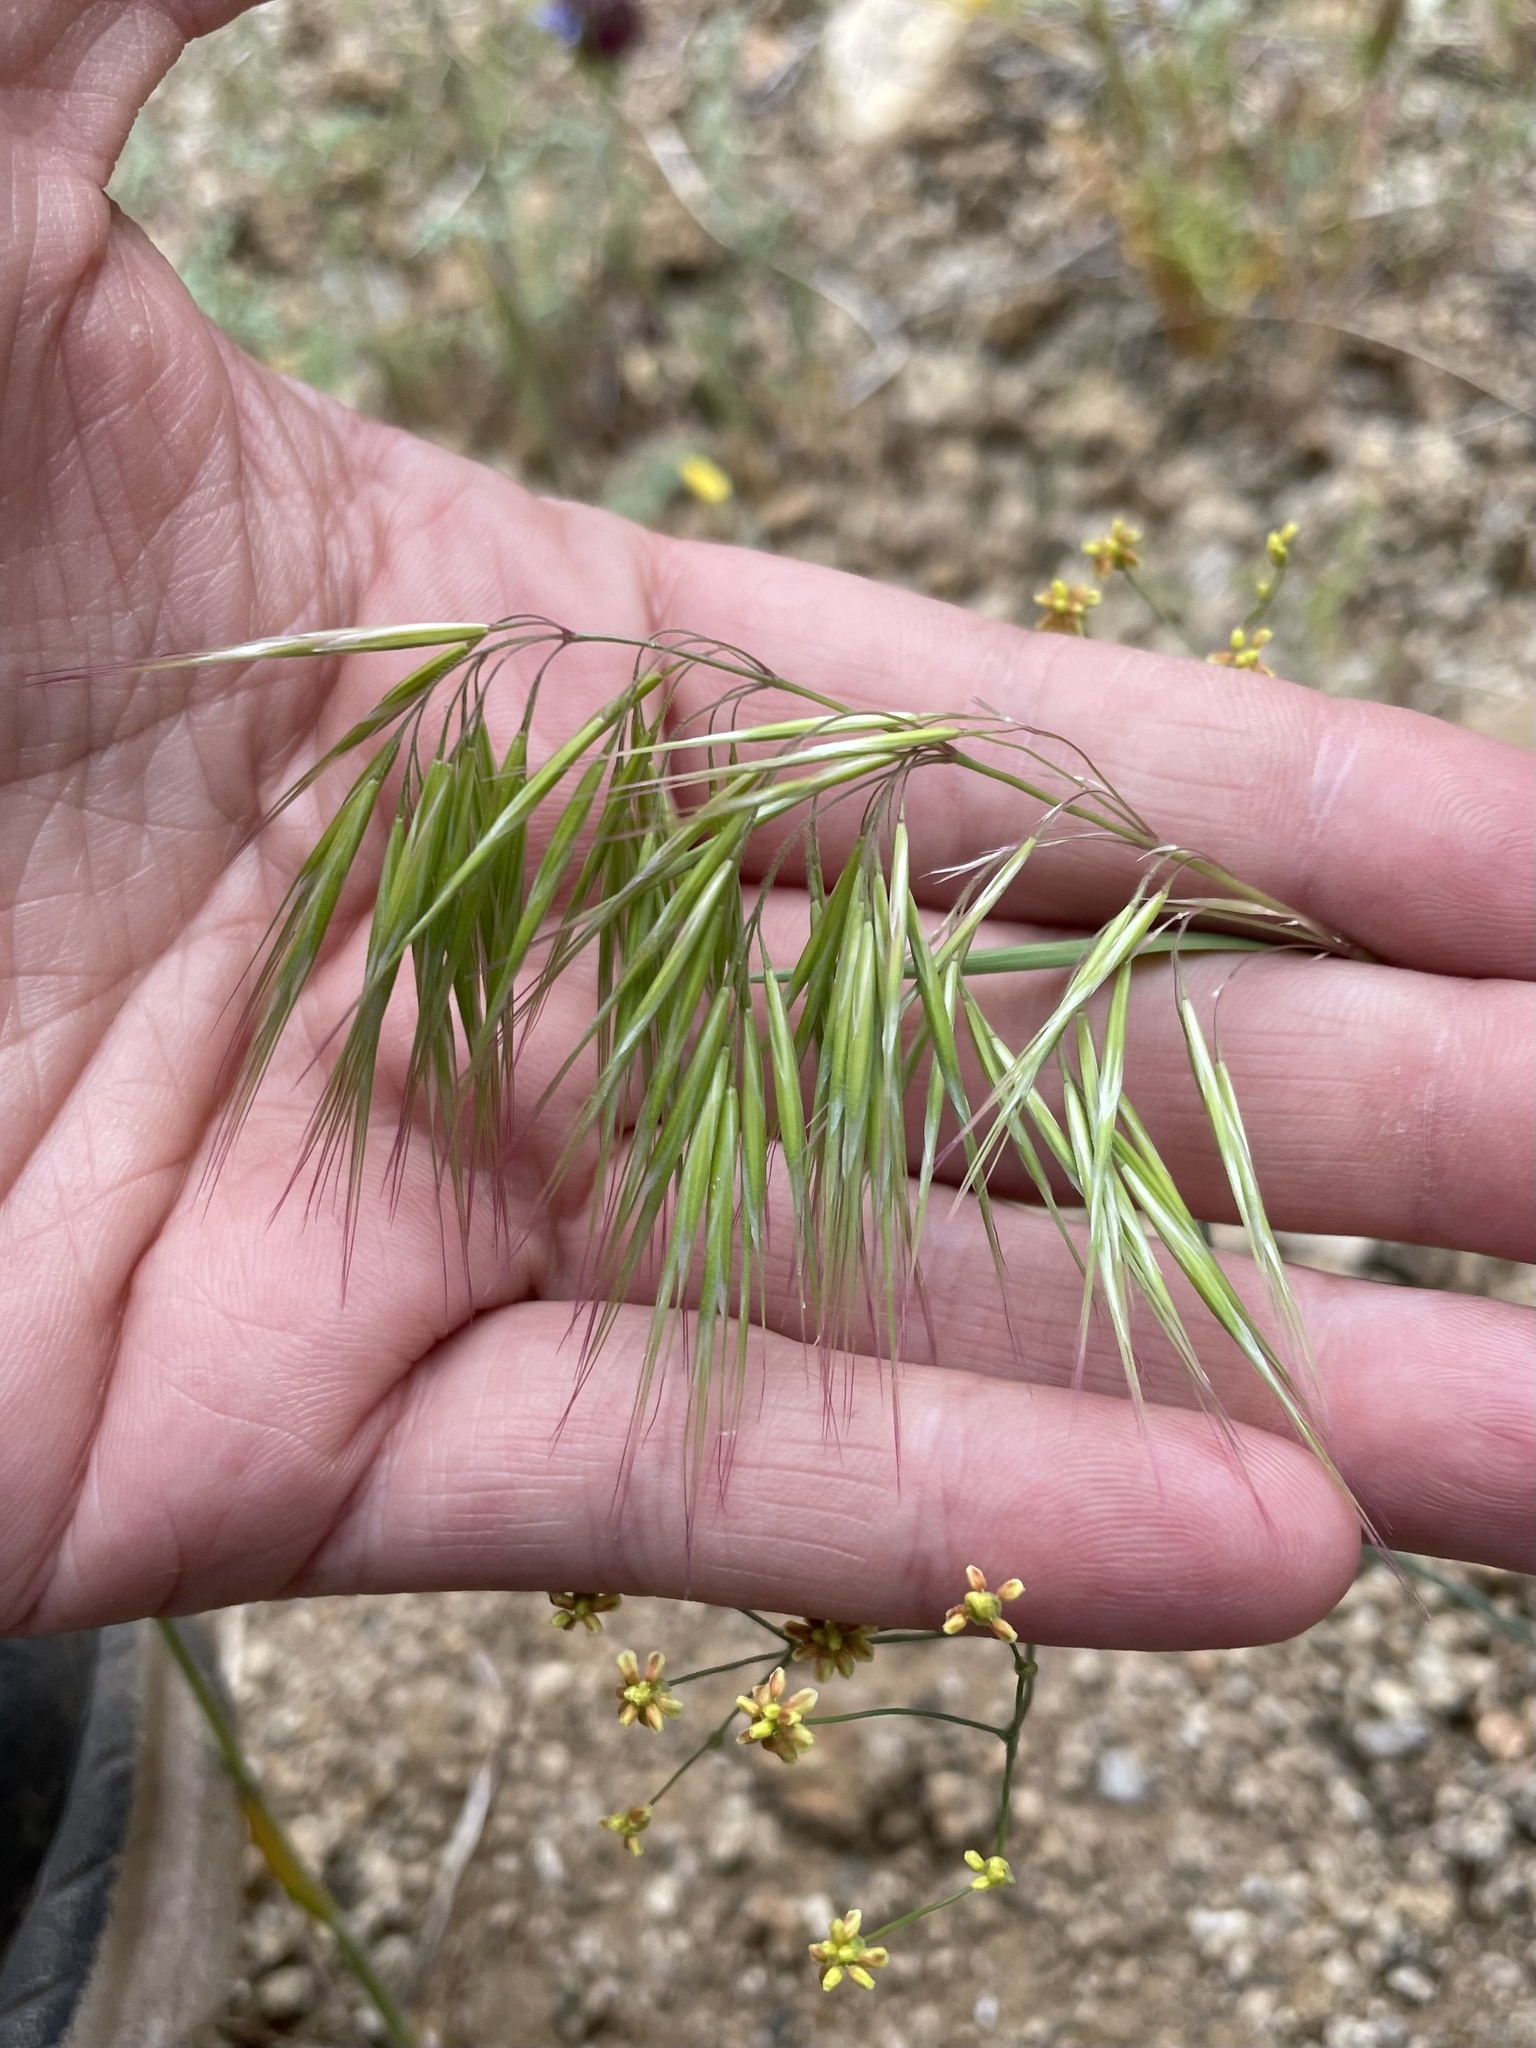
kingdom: Plantae
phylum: Tracheophyta
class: Liliopsida
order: Poales
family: Poaceae
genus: Bromus
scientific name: Bromus tectorum
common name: Cheatgrass
